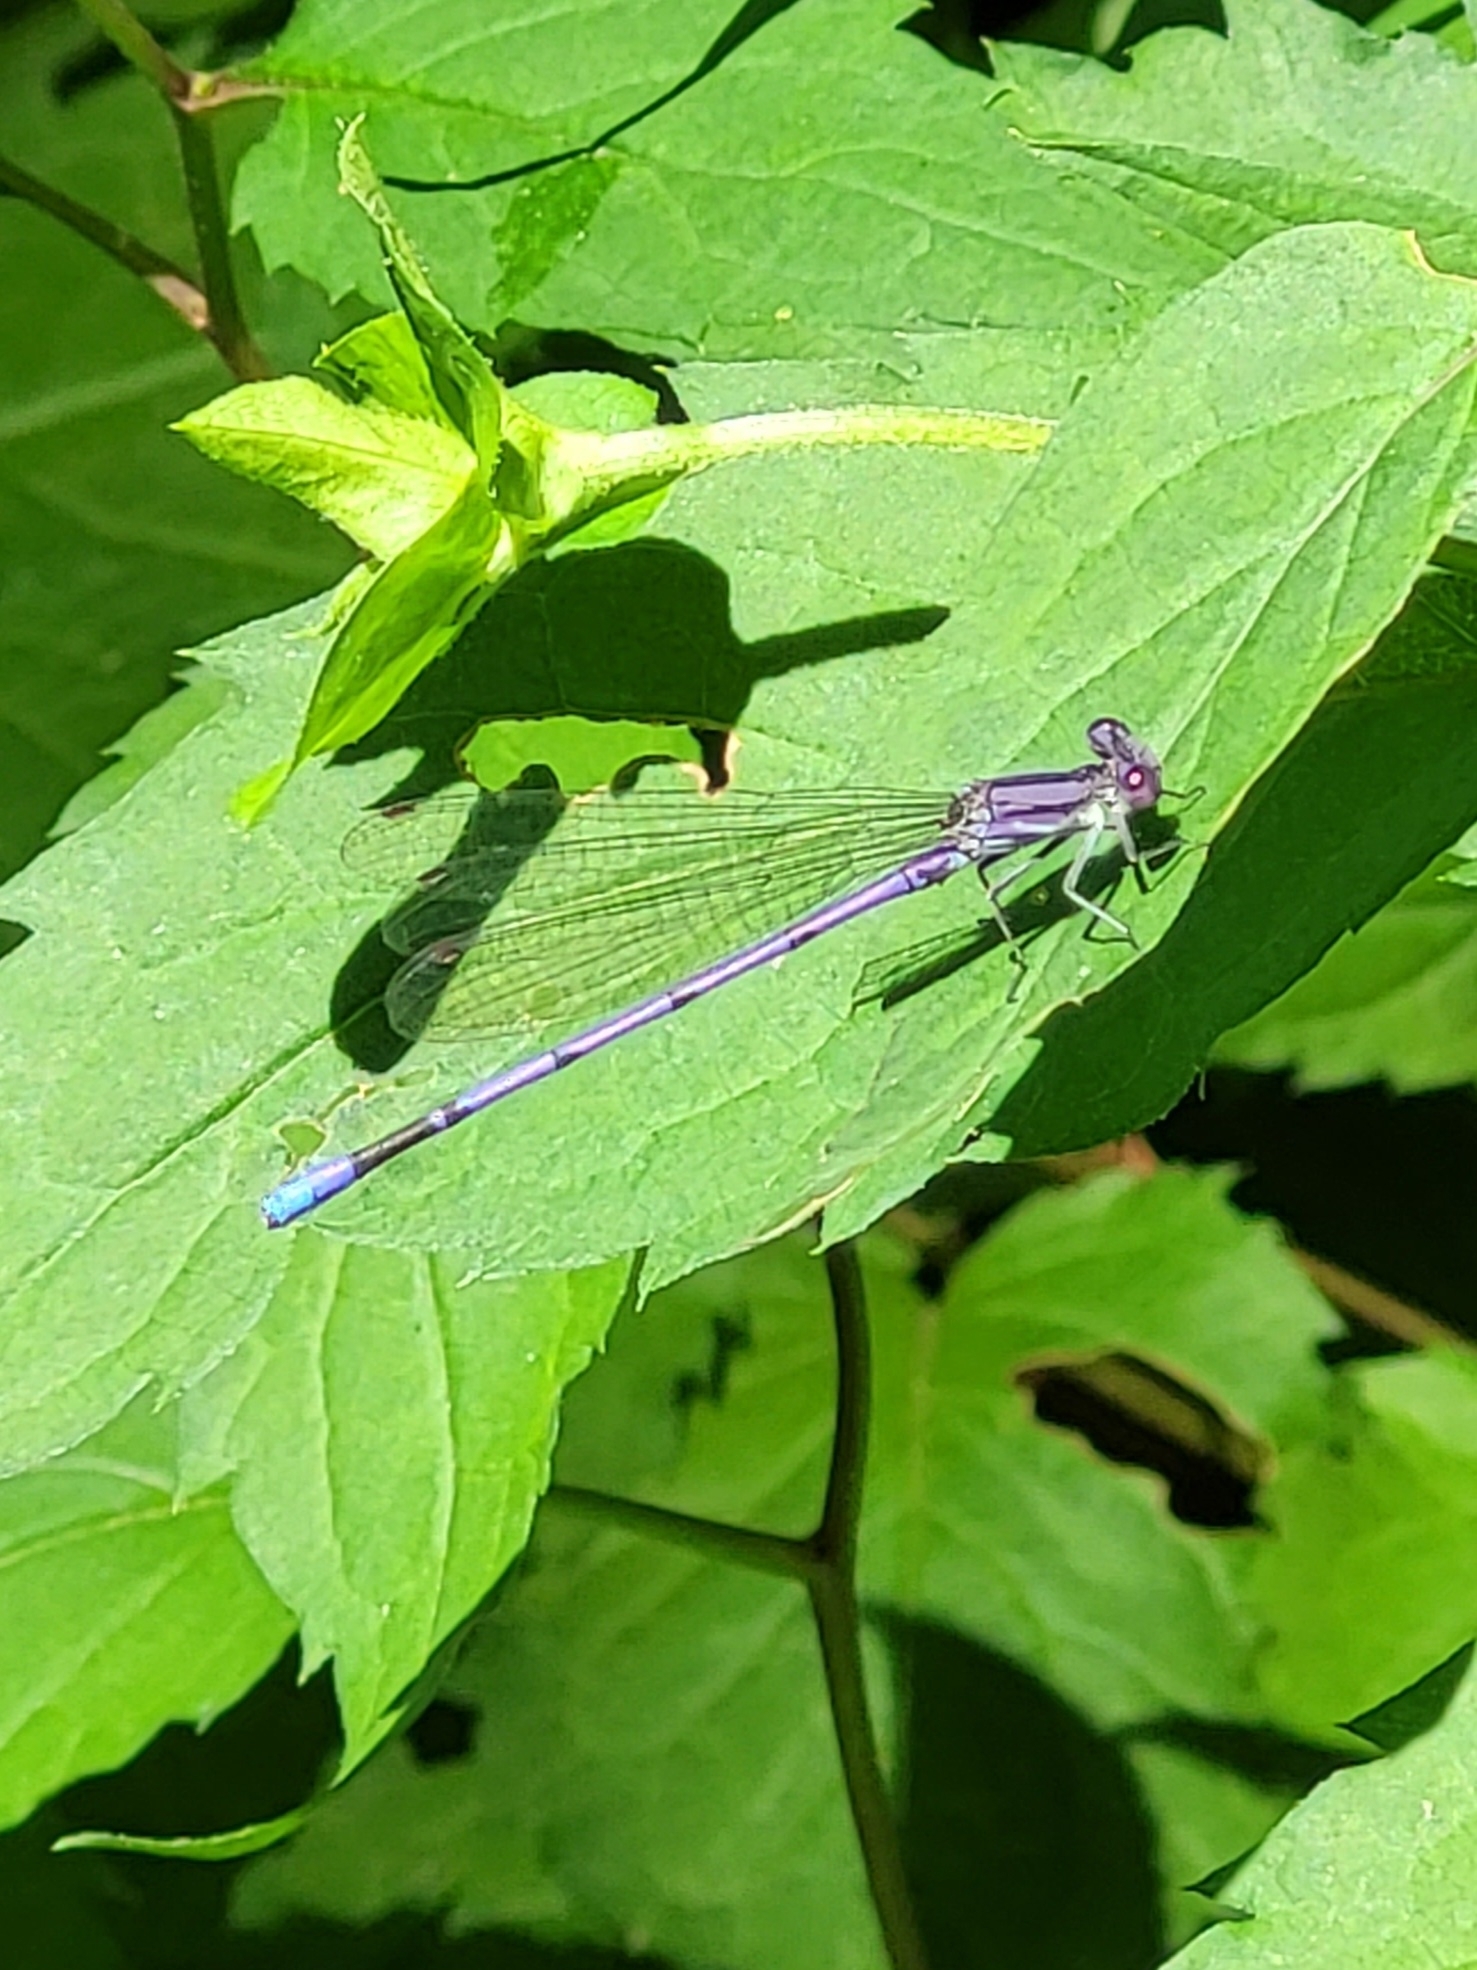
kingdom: Animalia
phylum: Arthropoda
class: Insecta
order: Odonata
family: Coenagrionidae
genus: Argia
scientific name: Argia fumipennis
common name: Variable dancer
